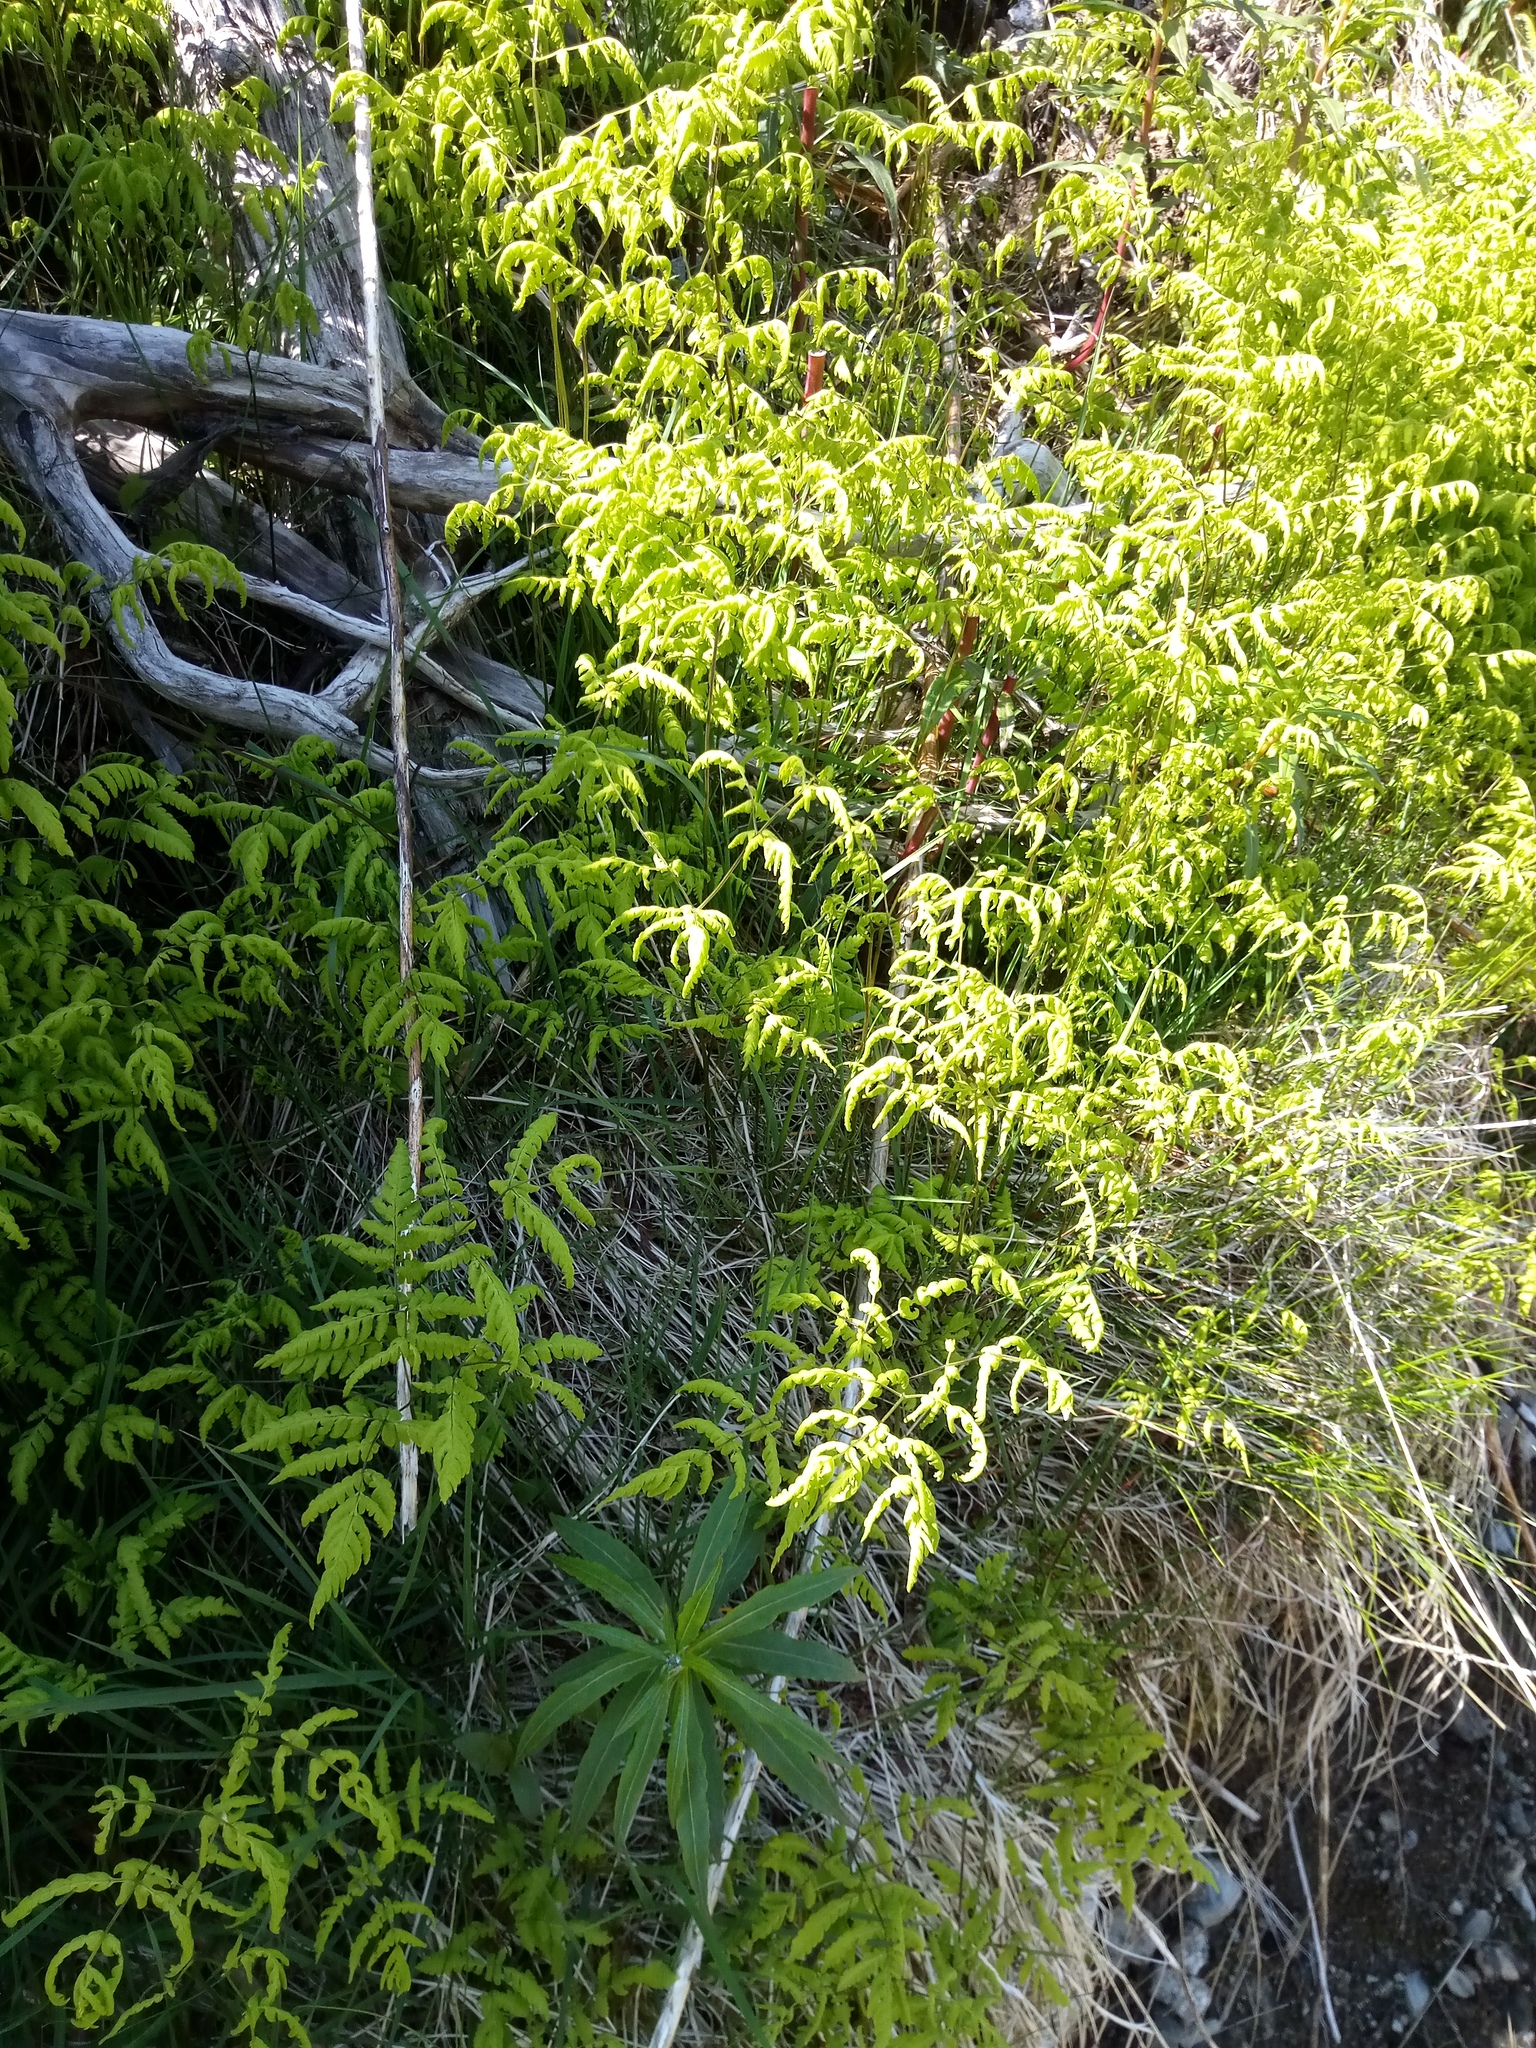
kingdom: Plantae
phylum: Tracheophyta
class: Polypodiopsida
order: Polypodiales
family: Cystopteridaceae
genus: Gymnocarpium
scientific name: Gymnocarpium dryopteris
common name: Oak fern
